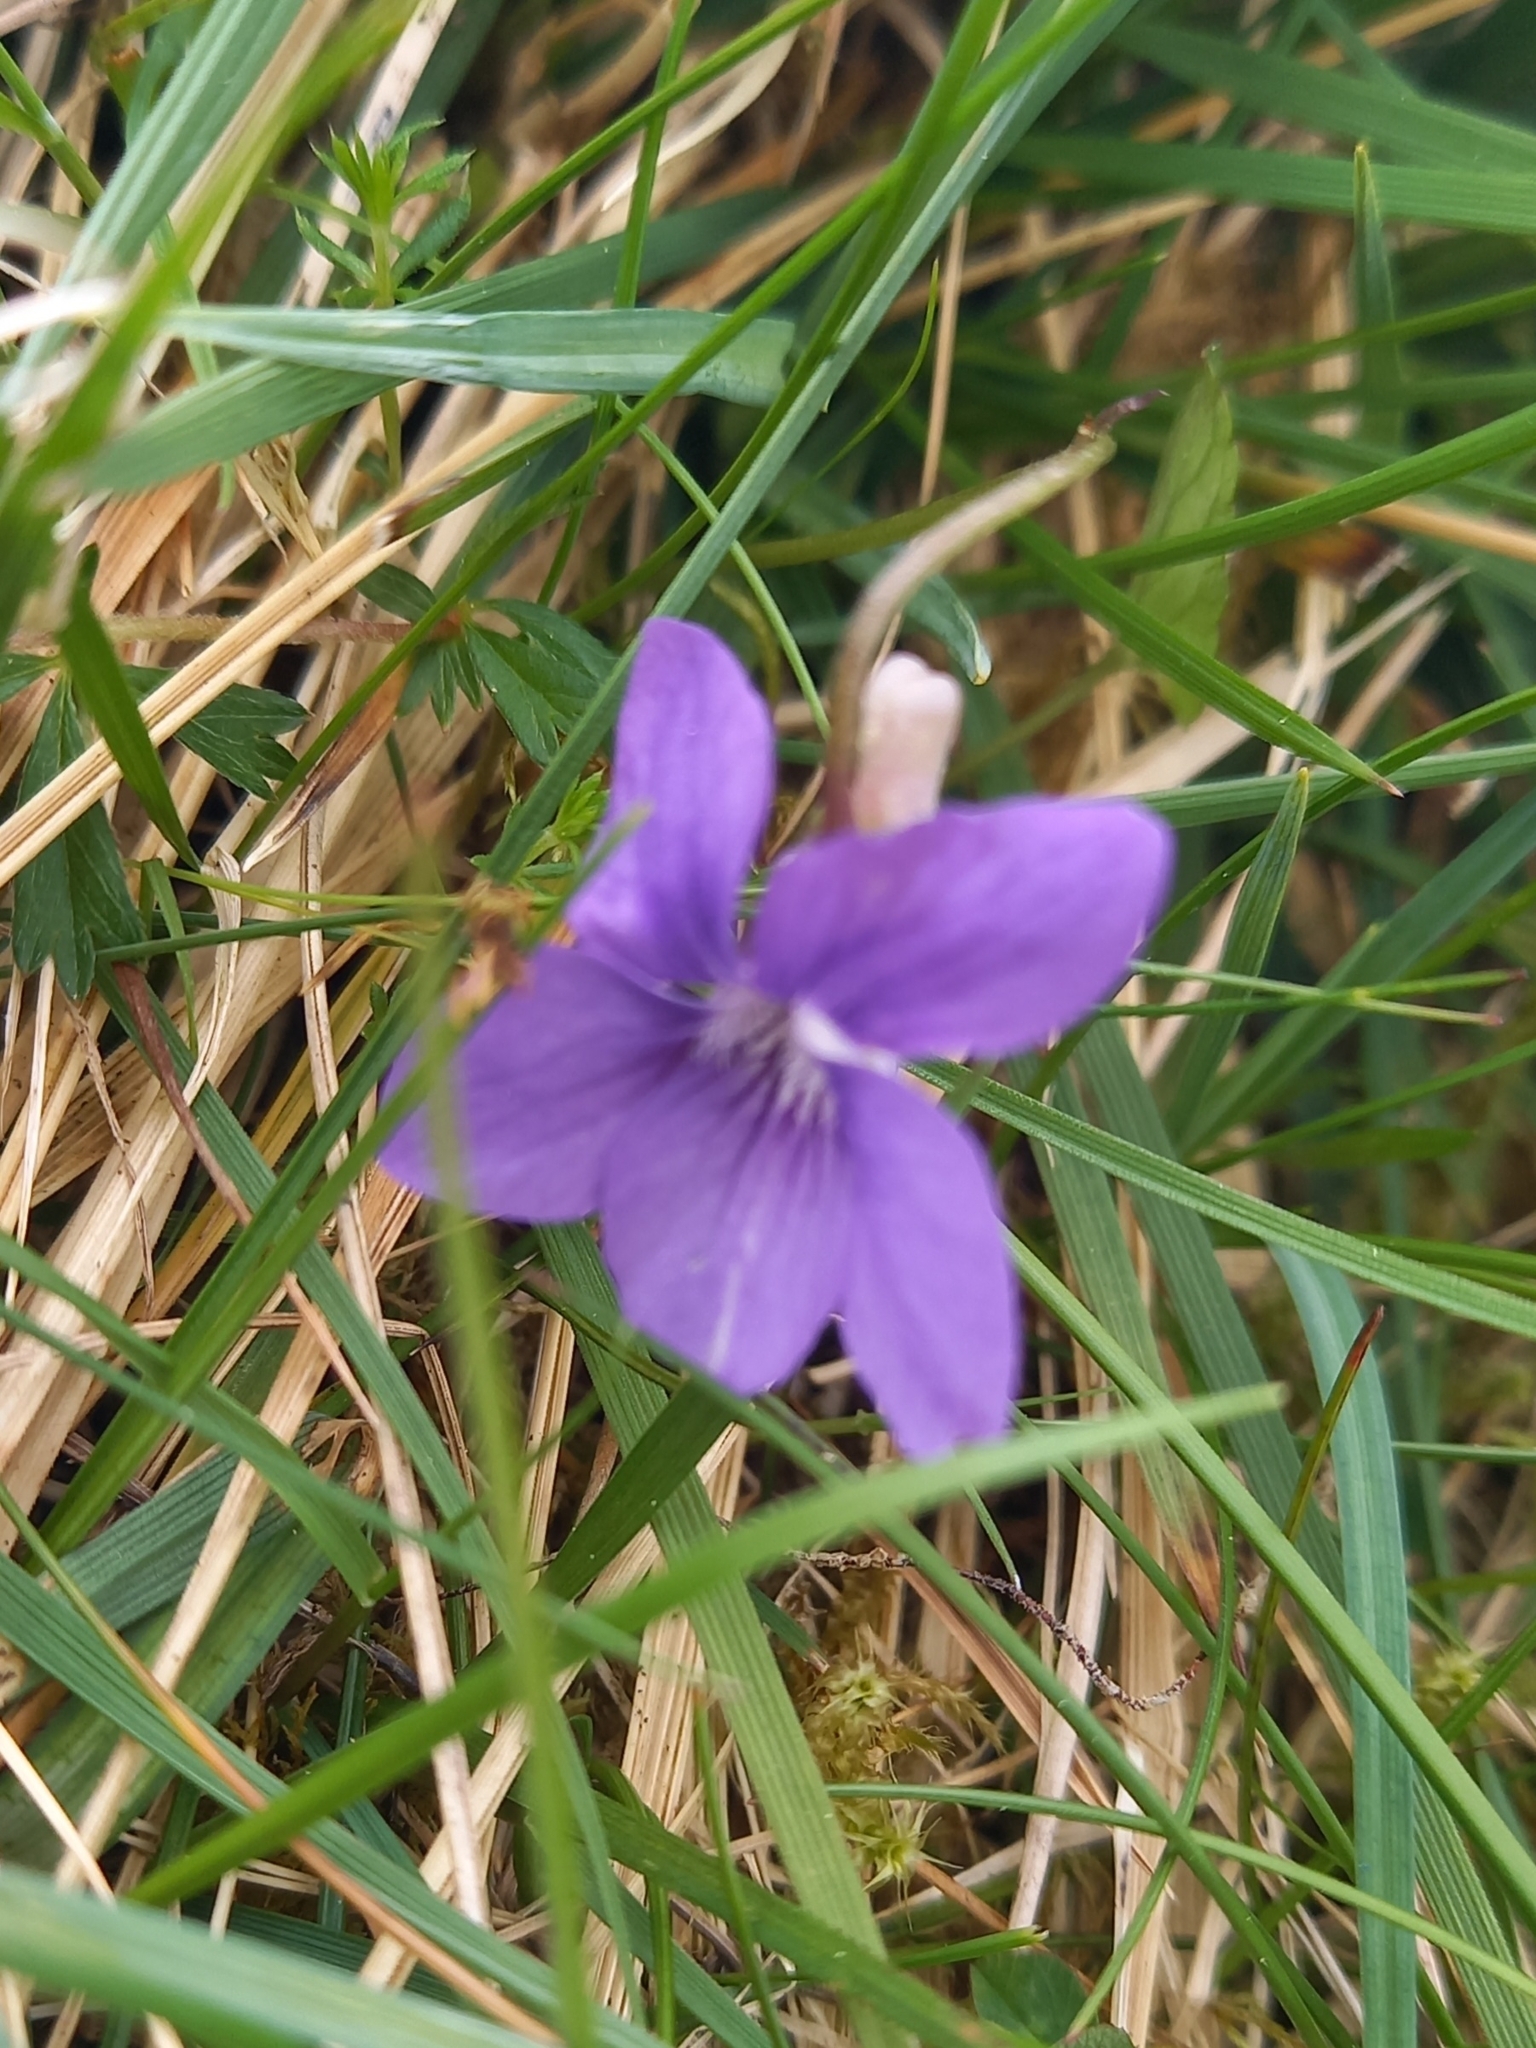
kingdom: Plantae
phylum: Tracheophyta
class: Magnoliopsida
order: Malpighiales
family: Violaceae
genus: Viola
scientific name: Viola riviniana
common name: Common dog-violet
